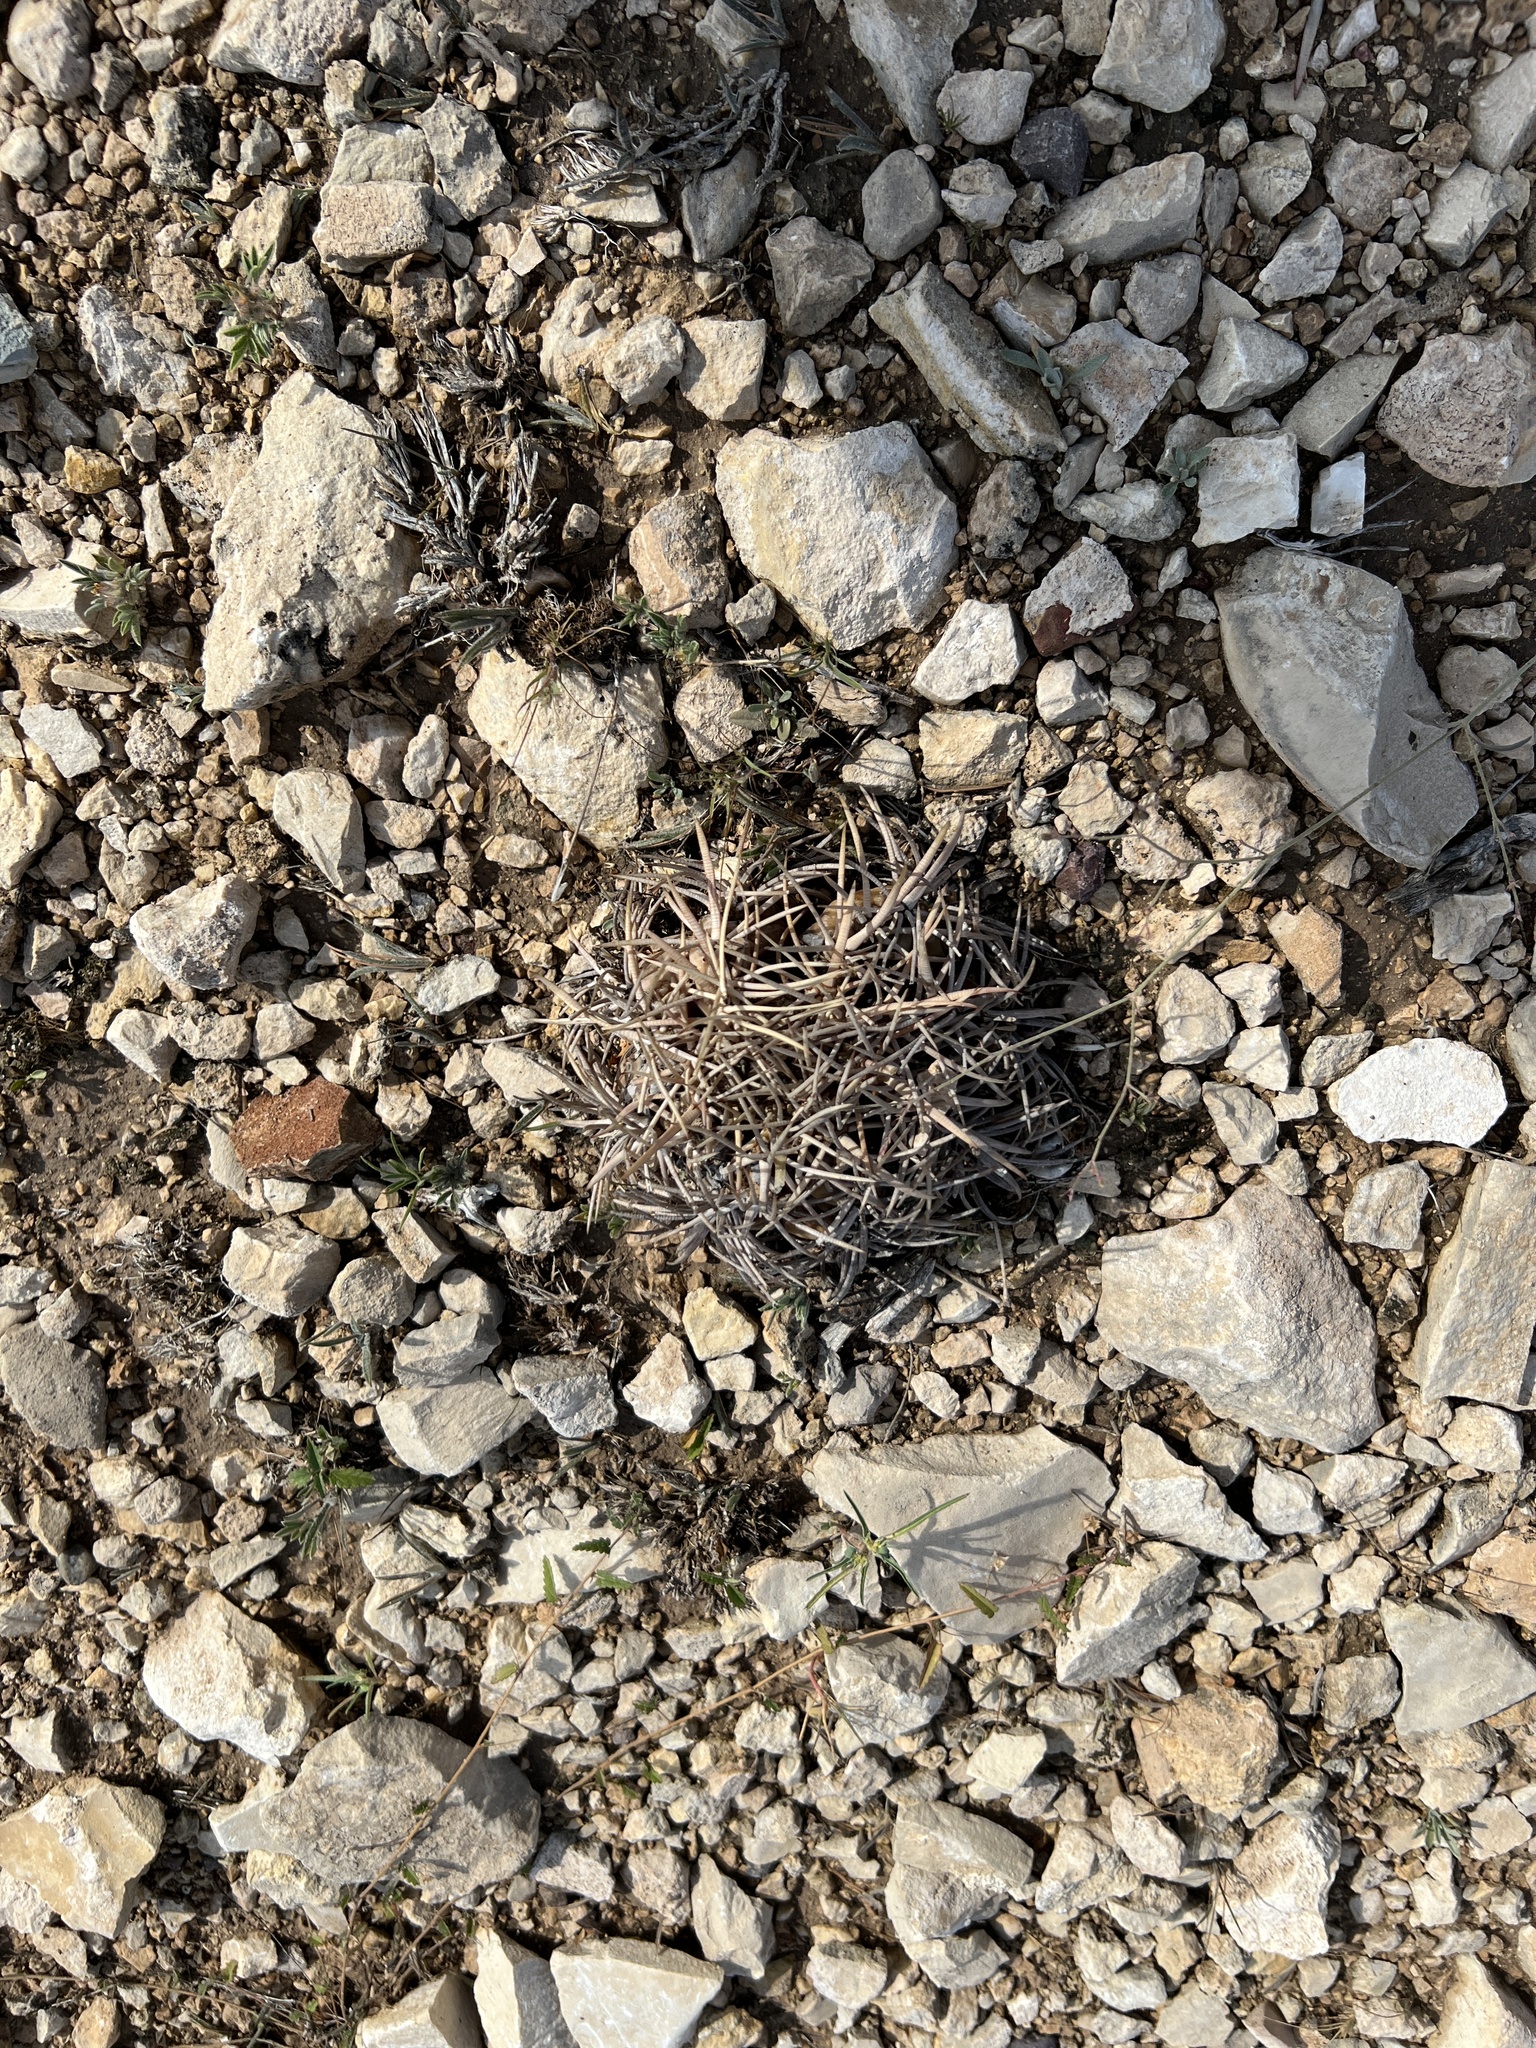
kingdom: Plantae
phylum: Tracheophyta
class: Magnoliopsida
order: Caryophyllales
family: Cactaceae
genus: Echinocactus
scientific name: Echinocactus horizonthalonius
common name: Devilshead
